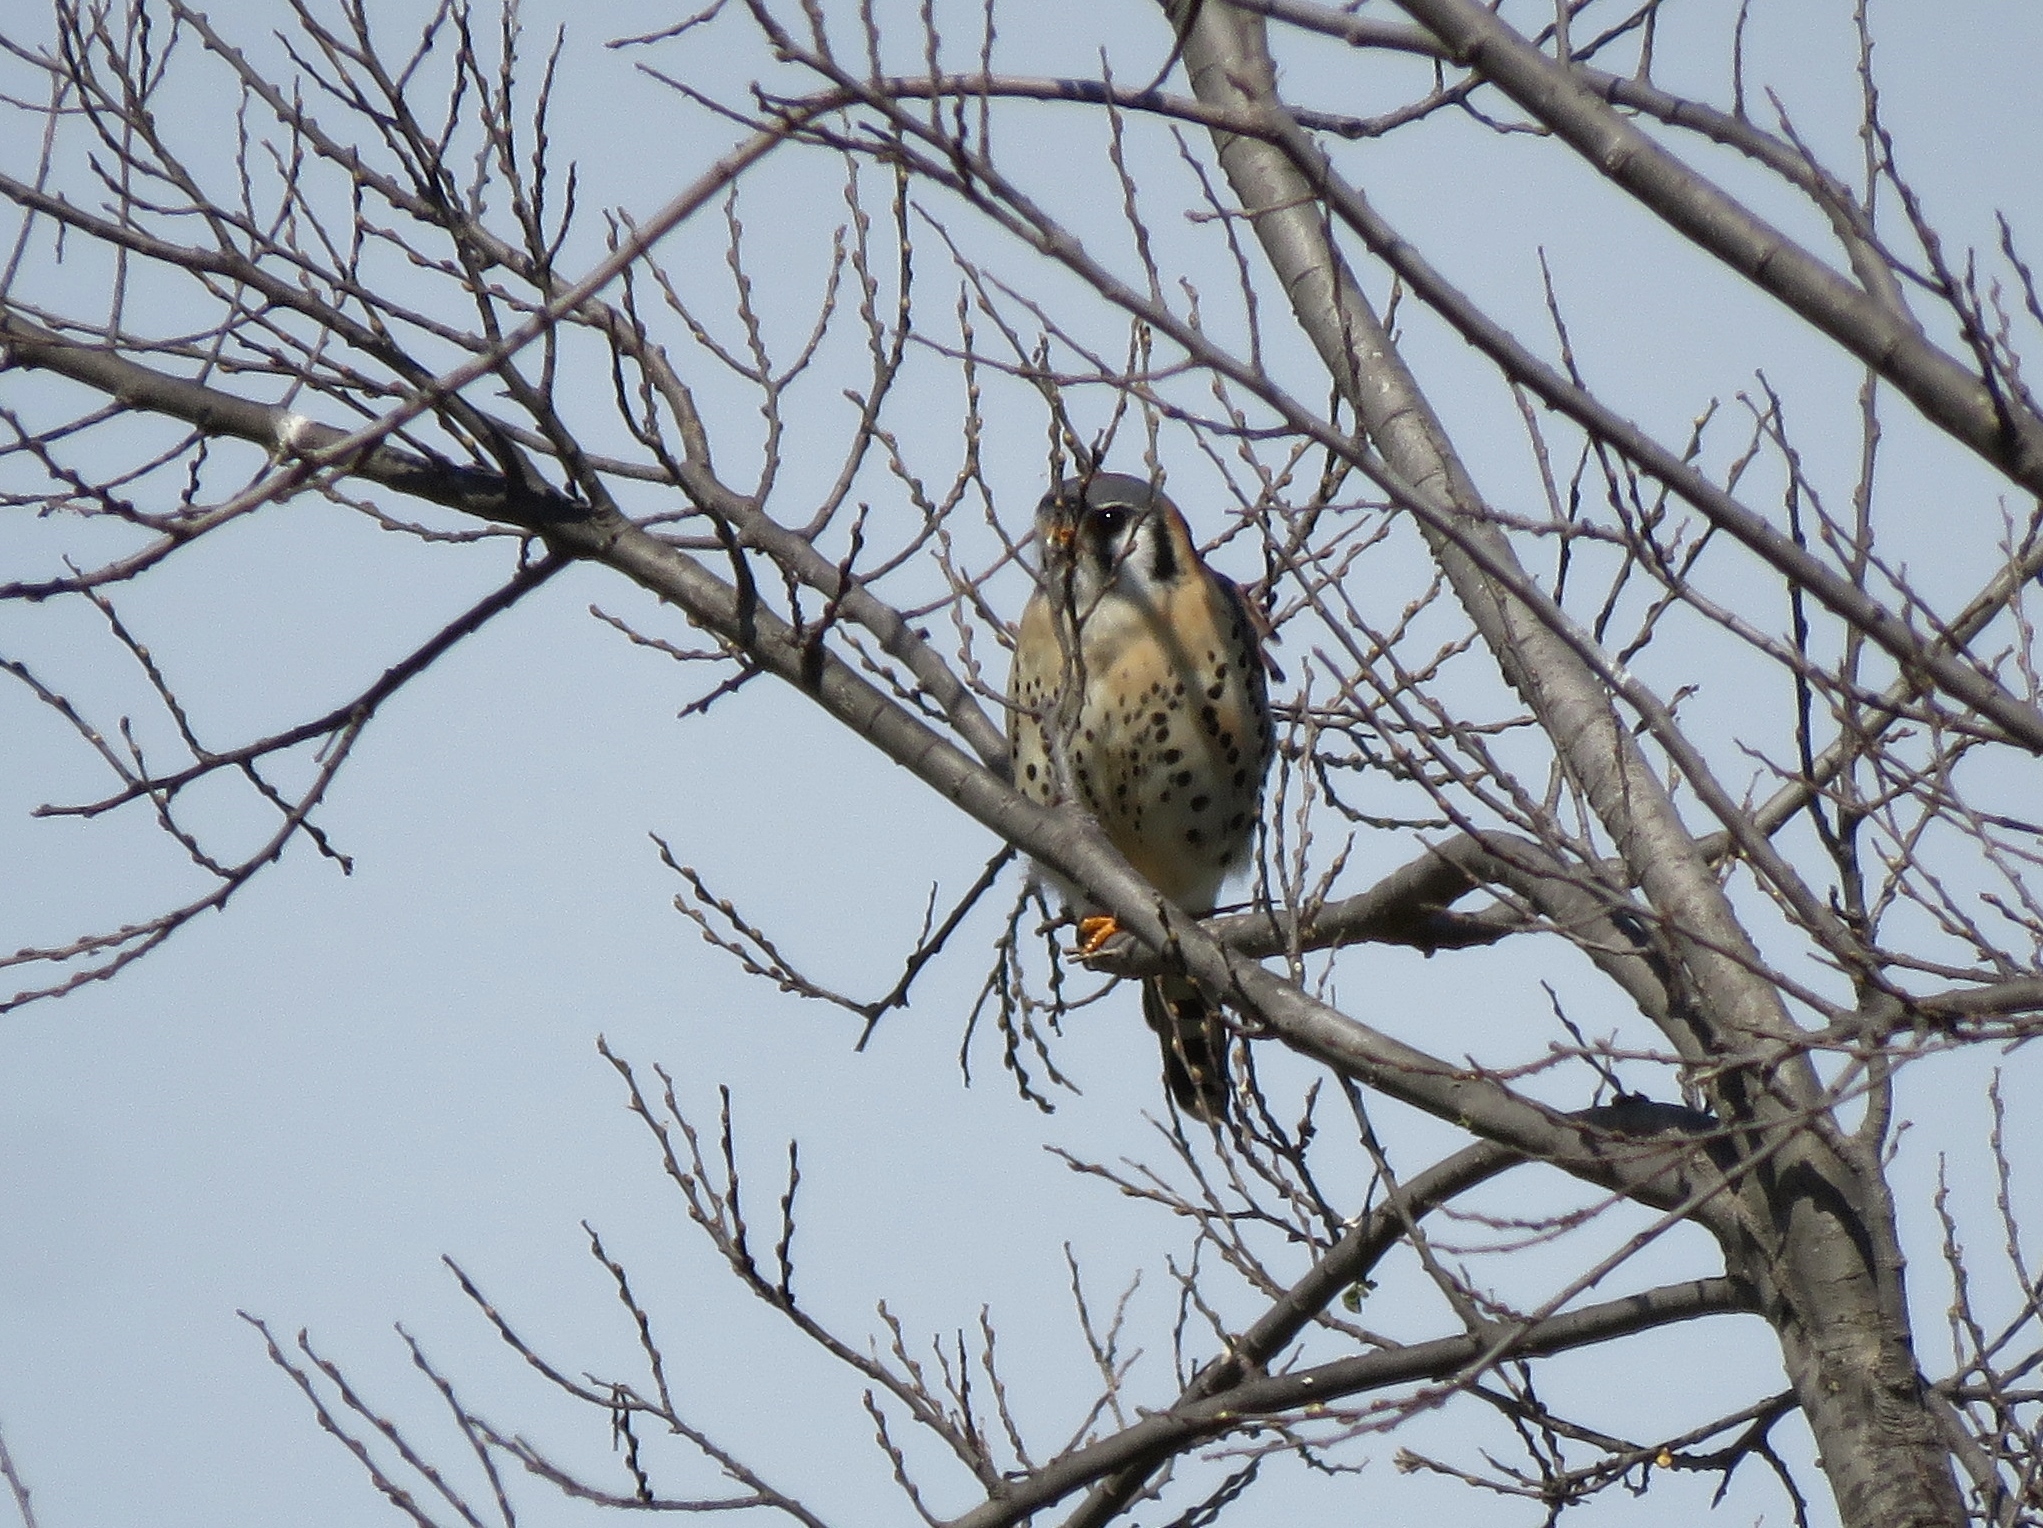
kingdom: Animalia
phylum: Chordata
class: Aves
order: Falconiformes
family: Falconidae
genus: Falco
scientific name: Falco sparverius
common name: American kestrel
